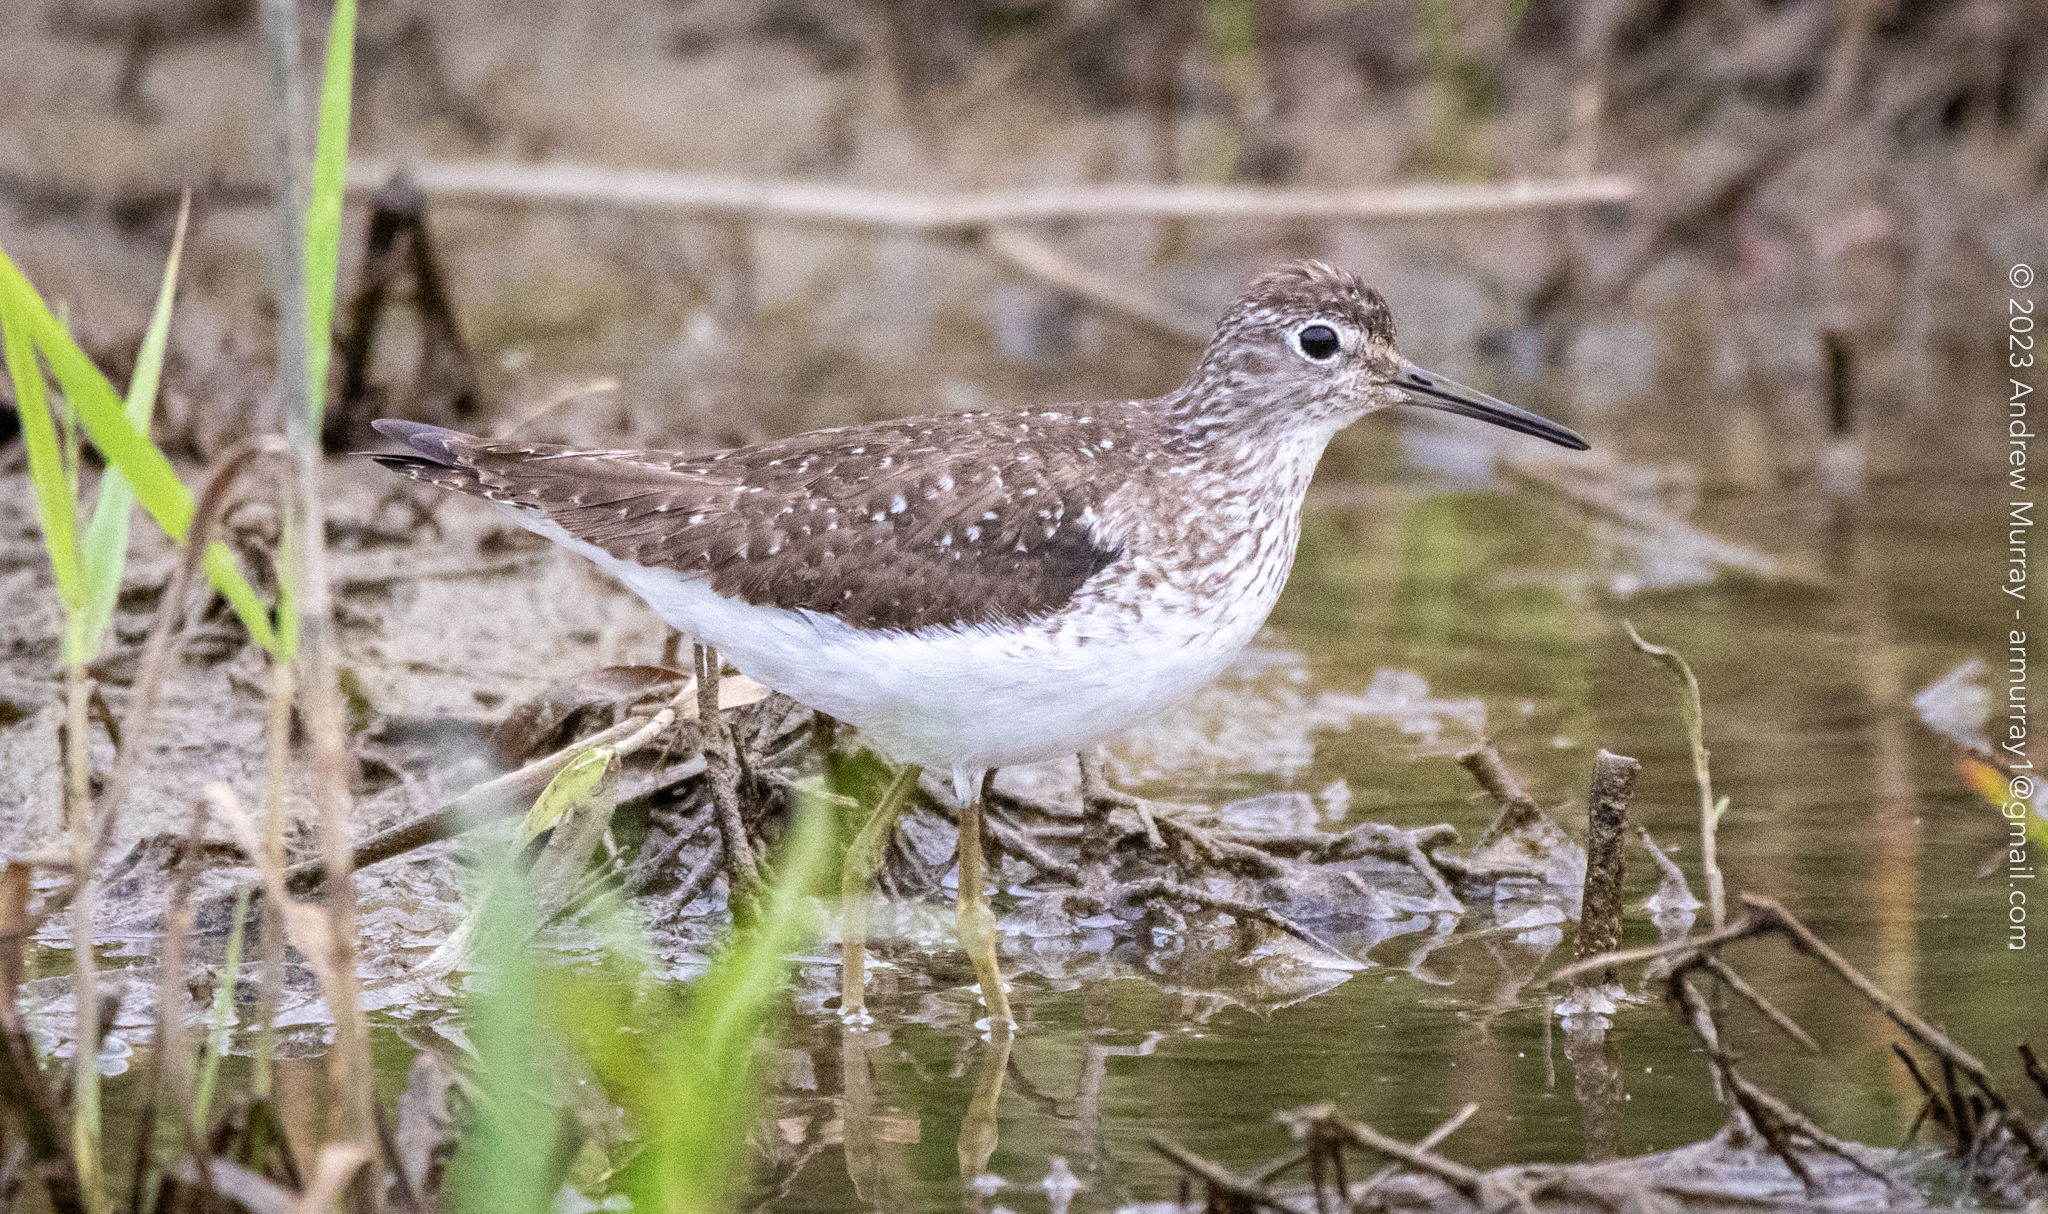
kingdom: Animalia
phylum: Chordata
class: Aves
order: Charadriiformes
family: Scolopacidae
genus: Tringa
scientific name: Tringa solitaria
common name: Solitary sandpiper
